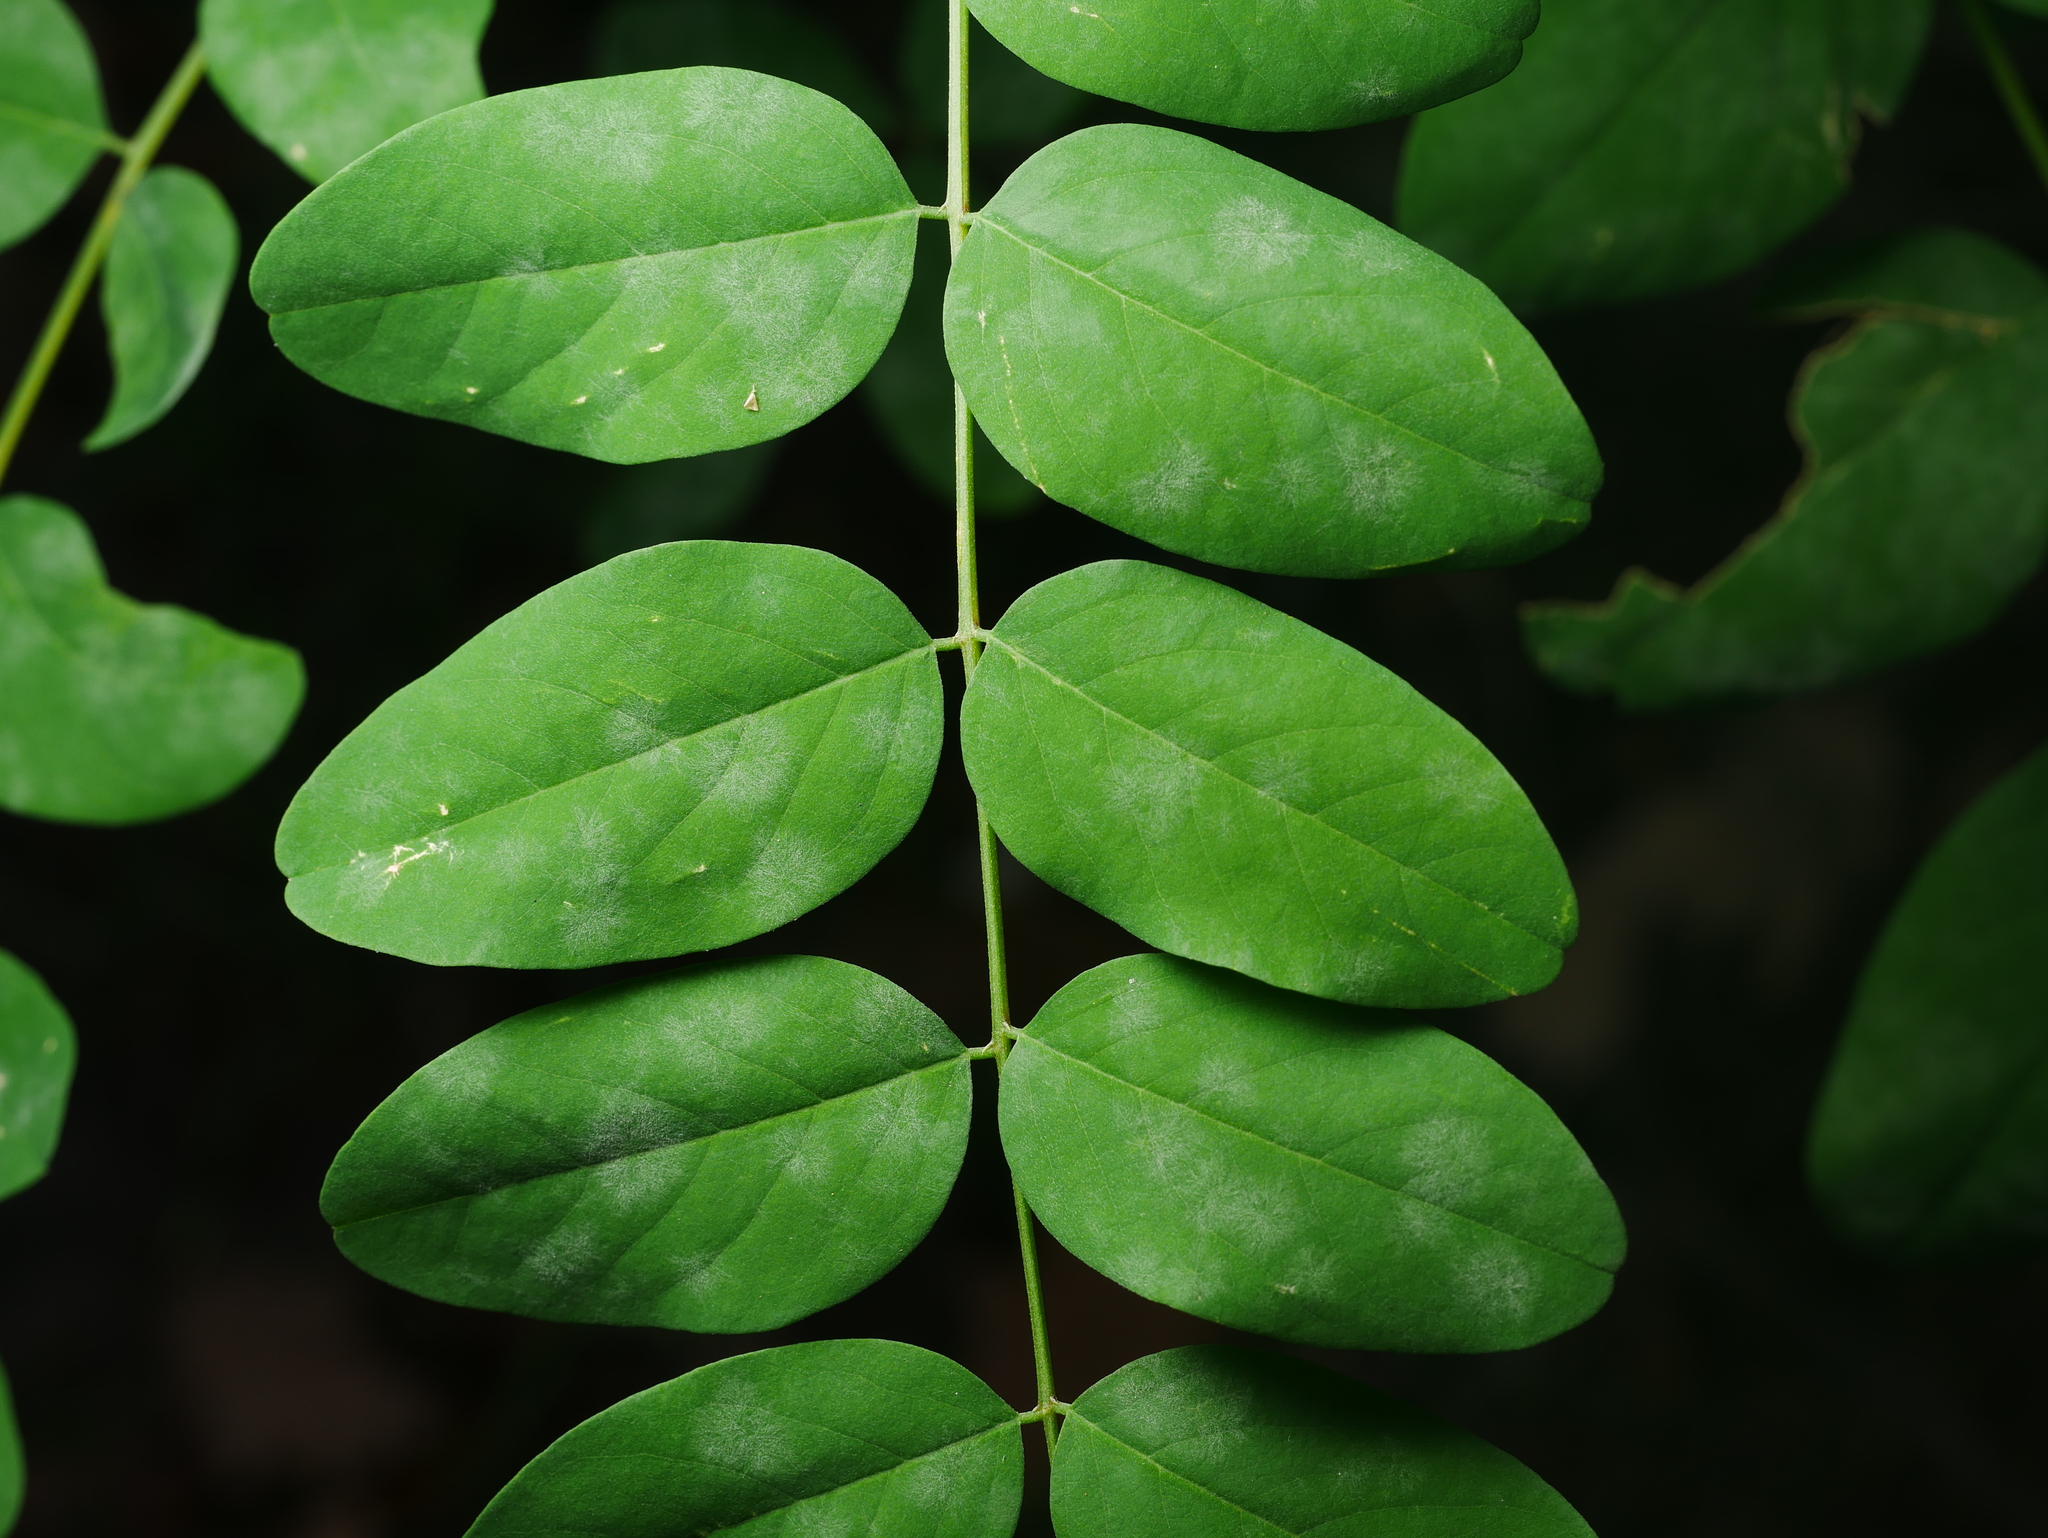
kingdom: Plantae
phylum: Tracheophyta
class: Magnoliopsida
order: Fabales
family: Fabaceae
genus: Robinia
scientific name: Robinia pseudoacacia
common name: Black locust
